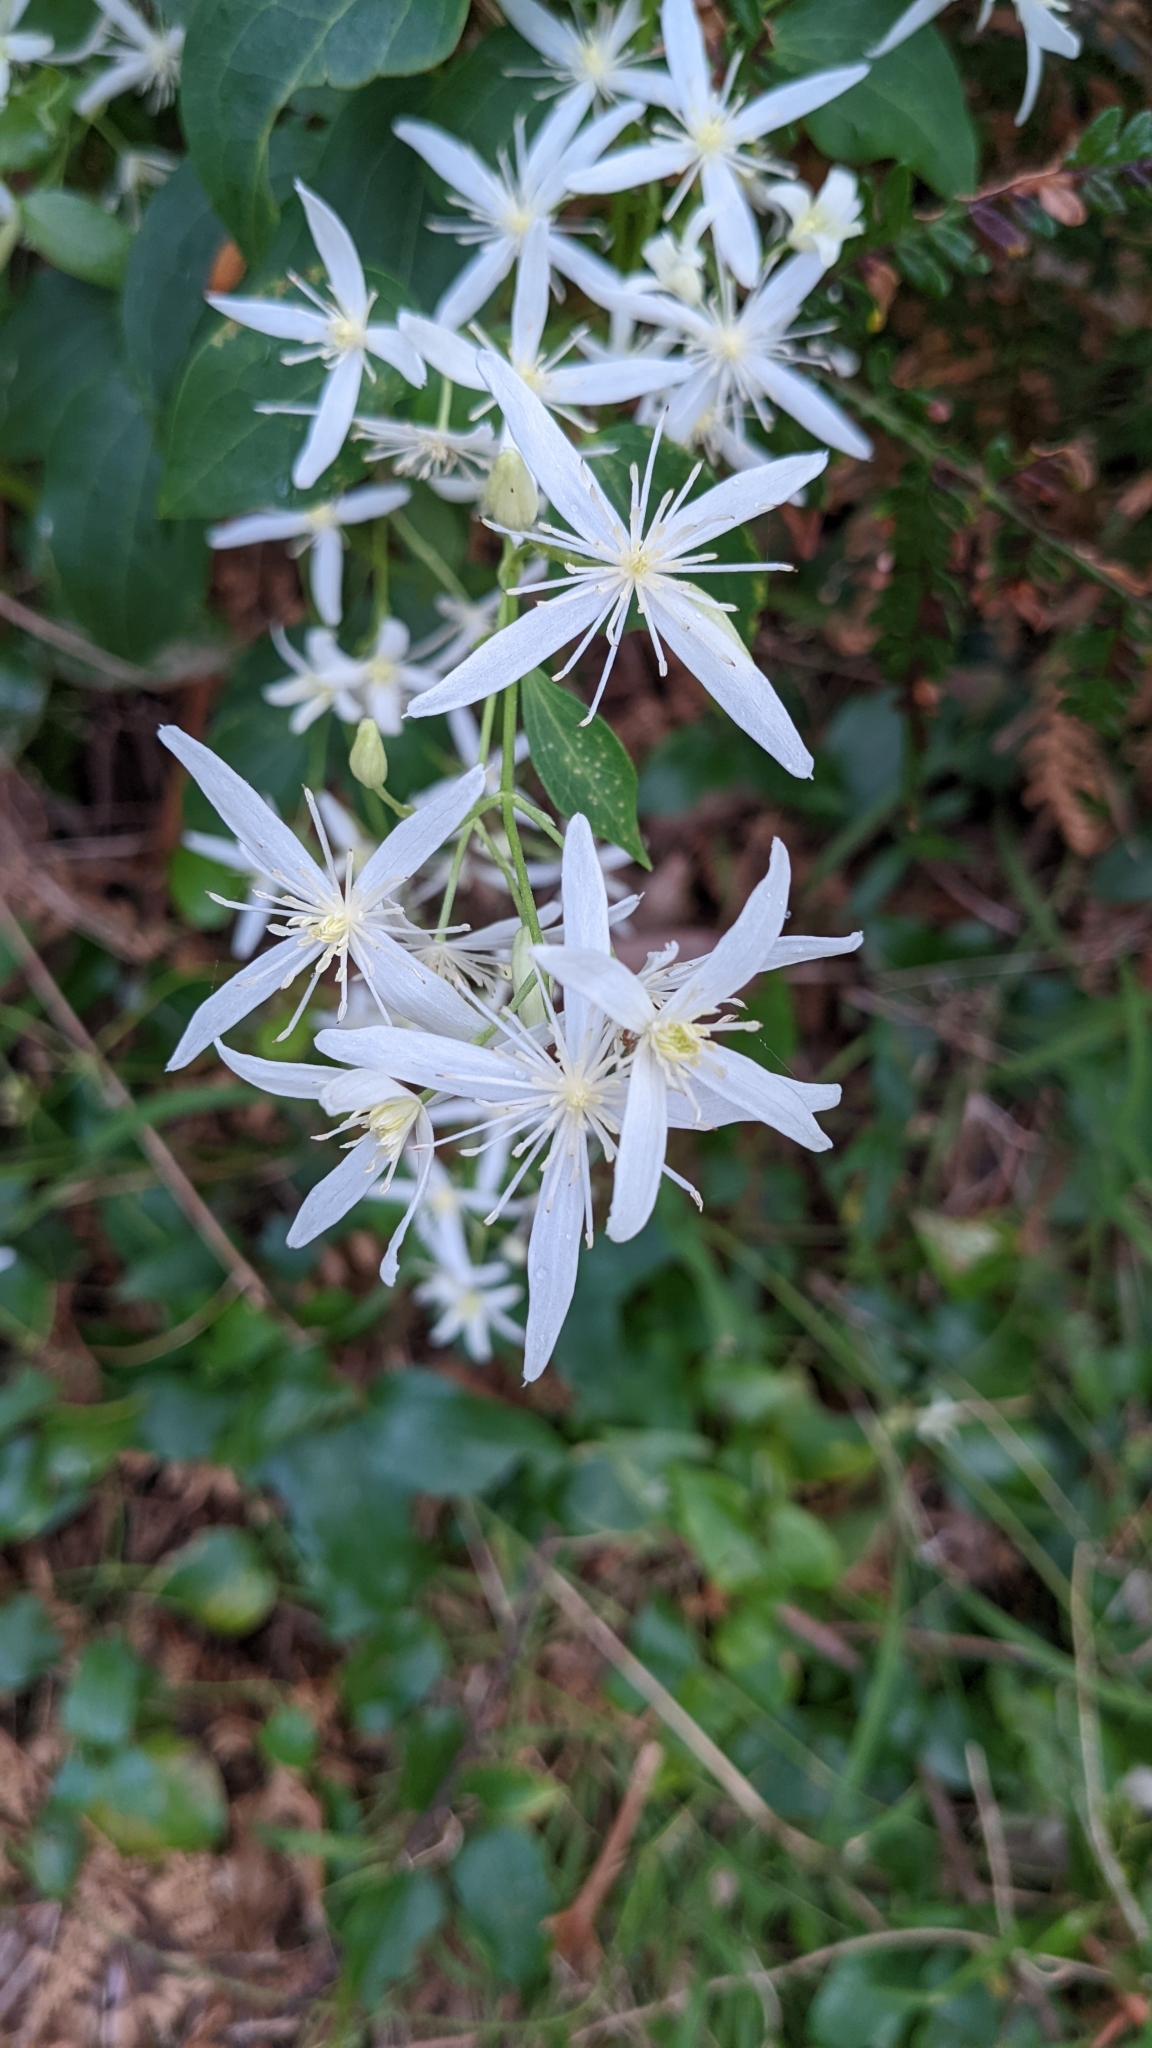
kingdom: Plantae
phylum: Tracheophyta
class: Magnoliopsida
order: Ranunculales
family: Ranunculaceae
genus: Clematis
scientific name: Clematis glycinoides
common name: Forest clematis
